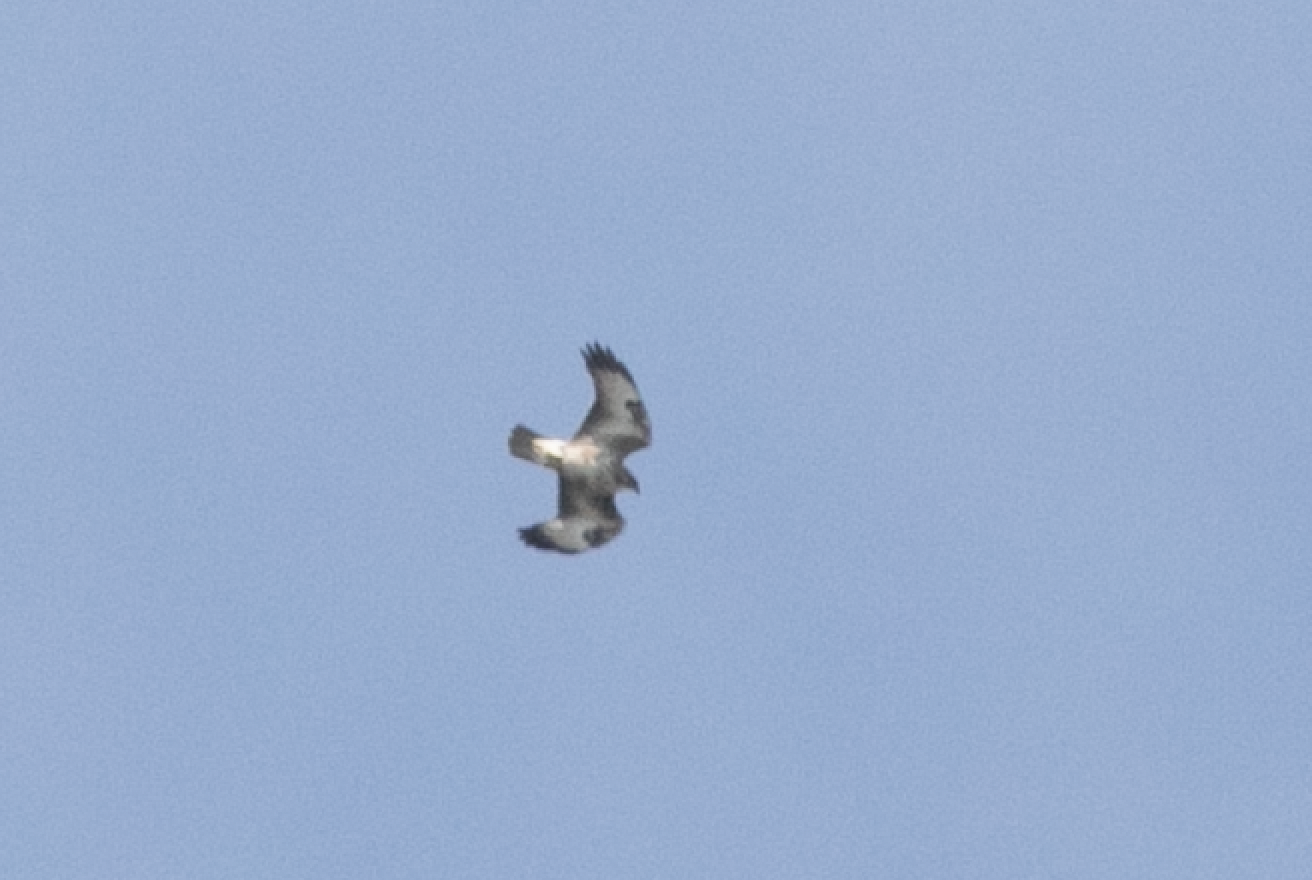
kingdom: Animalia
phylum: Chordata
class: Aves
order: Accipitriformes
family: Accipitridae
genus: Buteo
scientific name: Buteo buteo
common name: Common buzzard
